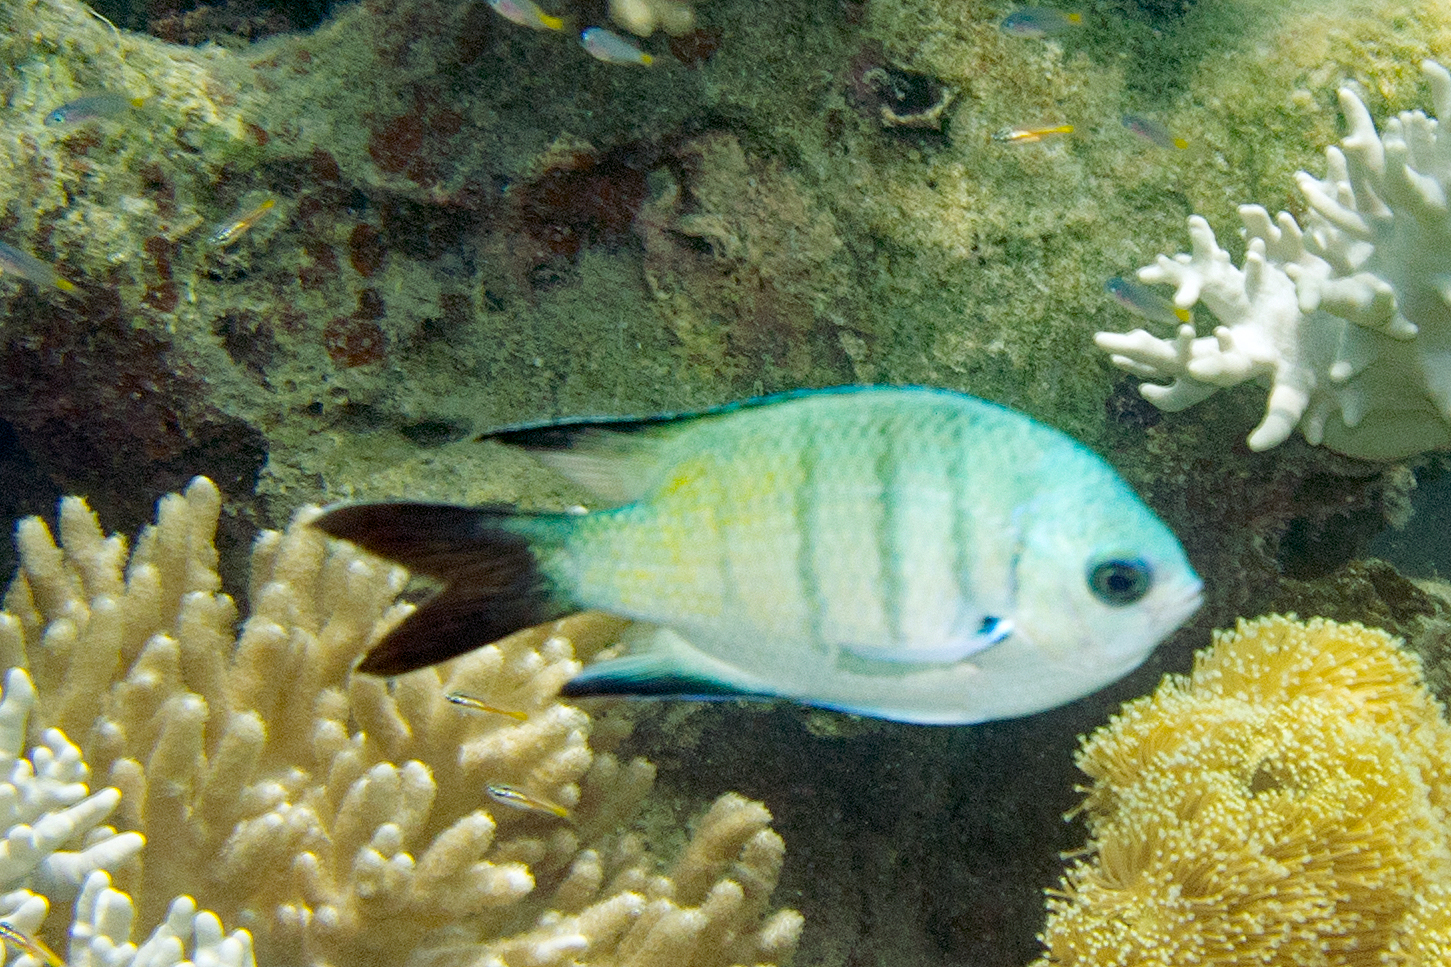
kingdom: Animalia
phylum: Chordata
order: Perciformes
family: Pomacentridae
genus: Abudefduf
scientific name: Abudefduf whitleyi
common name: Whitley's seargent
